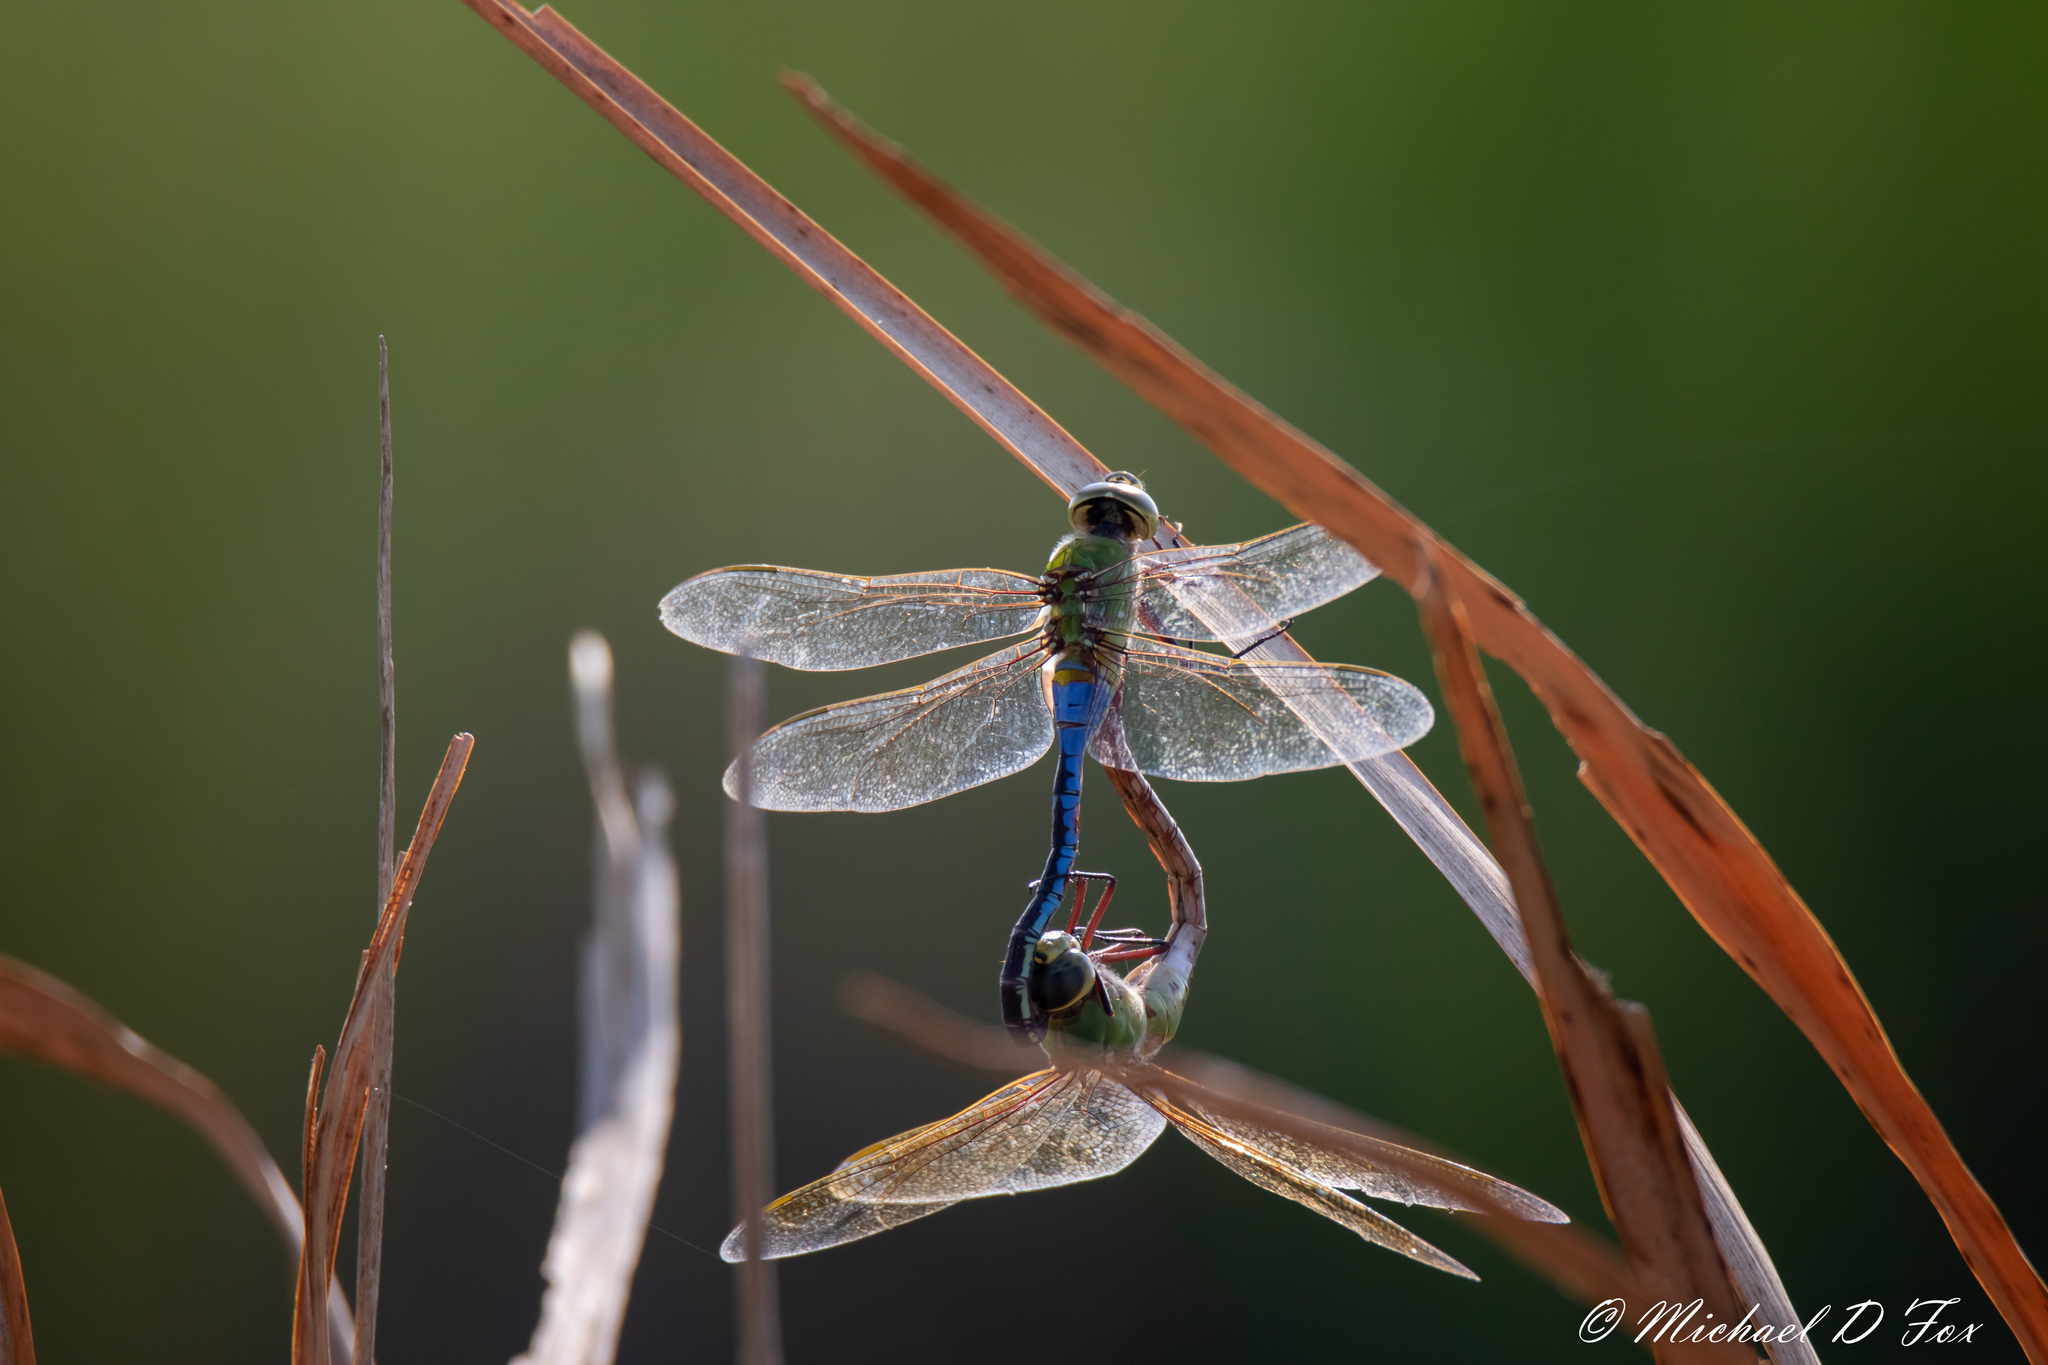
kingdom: Animalia
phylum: Arthropoda
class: Insecta
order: Odonata
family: Aeshnidae
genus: Anax
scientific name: Anax junius
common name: Common green darner
